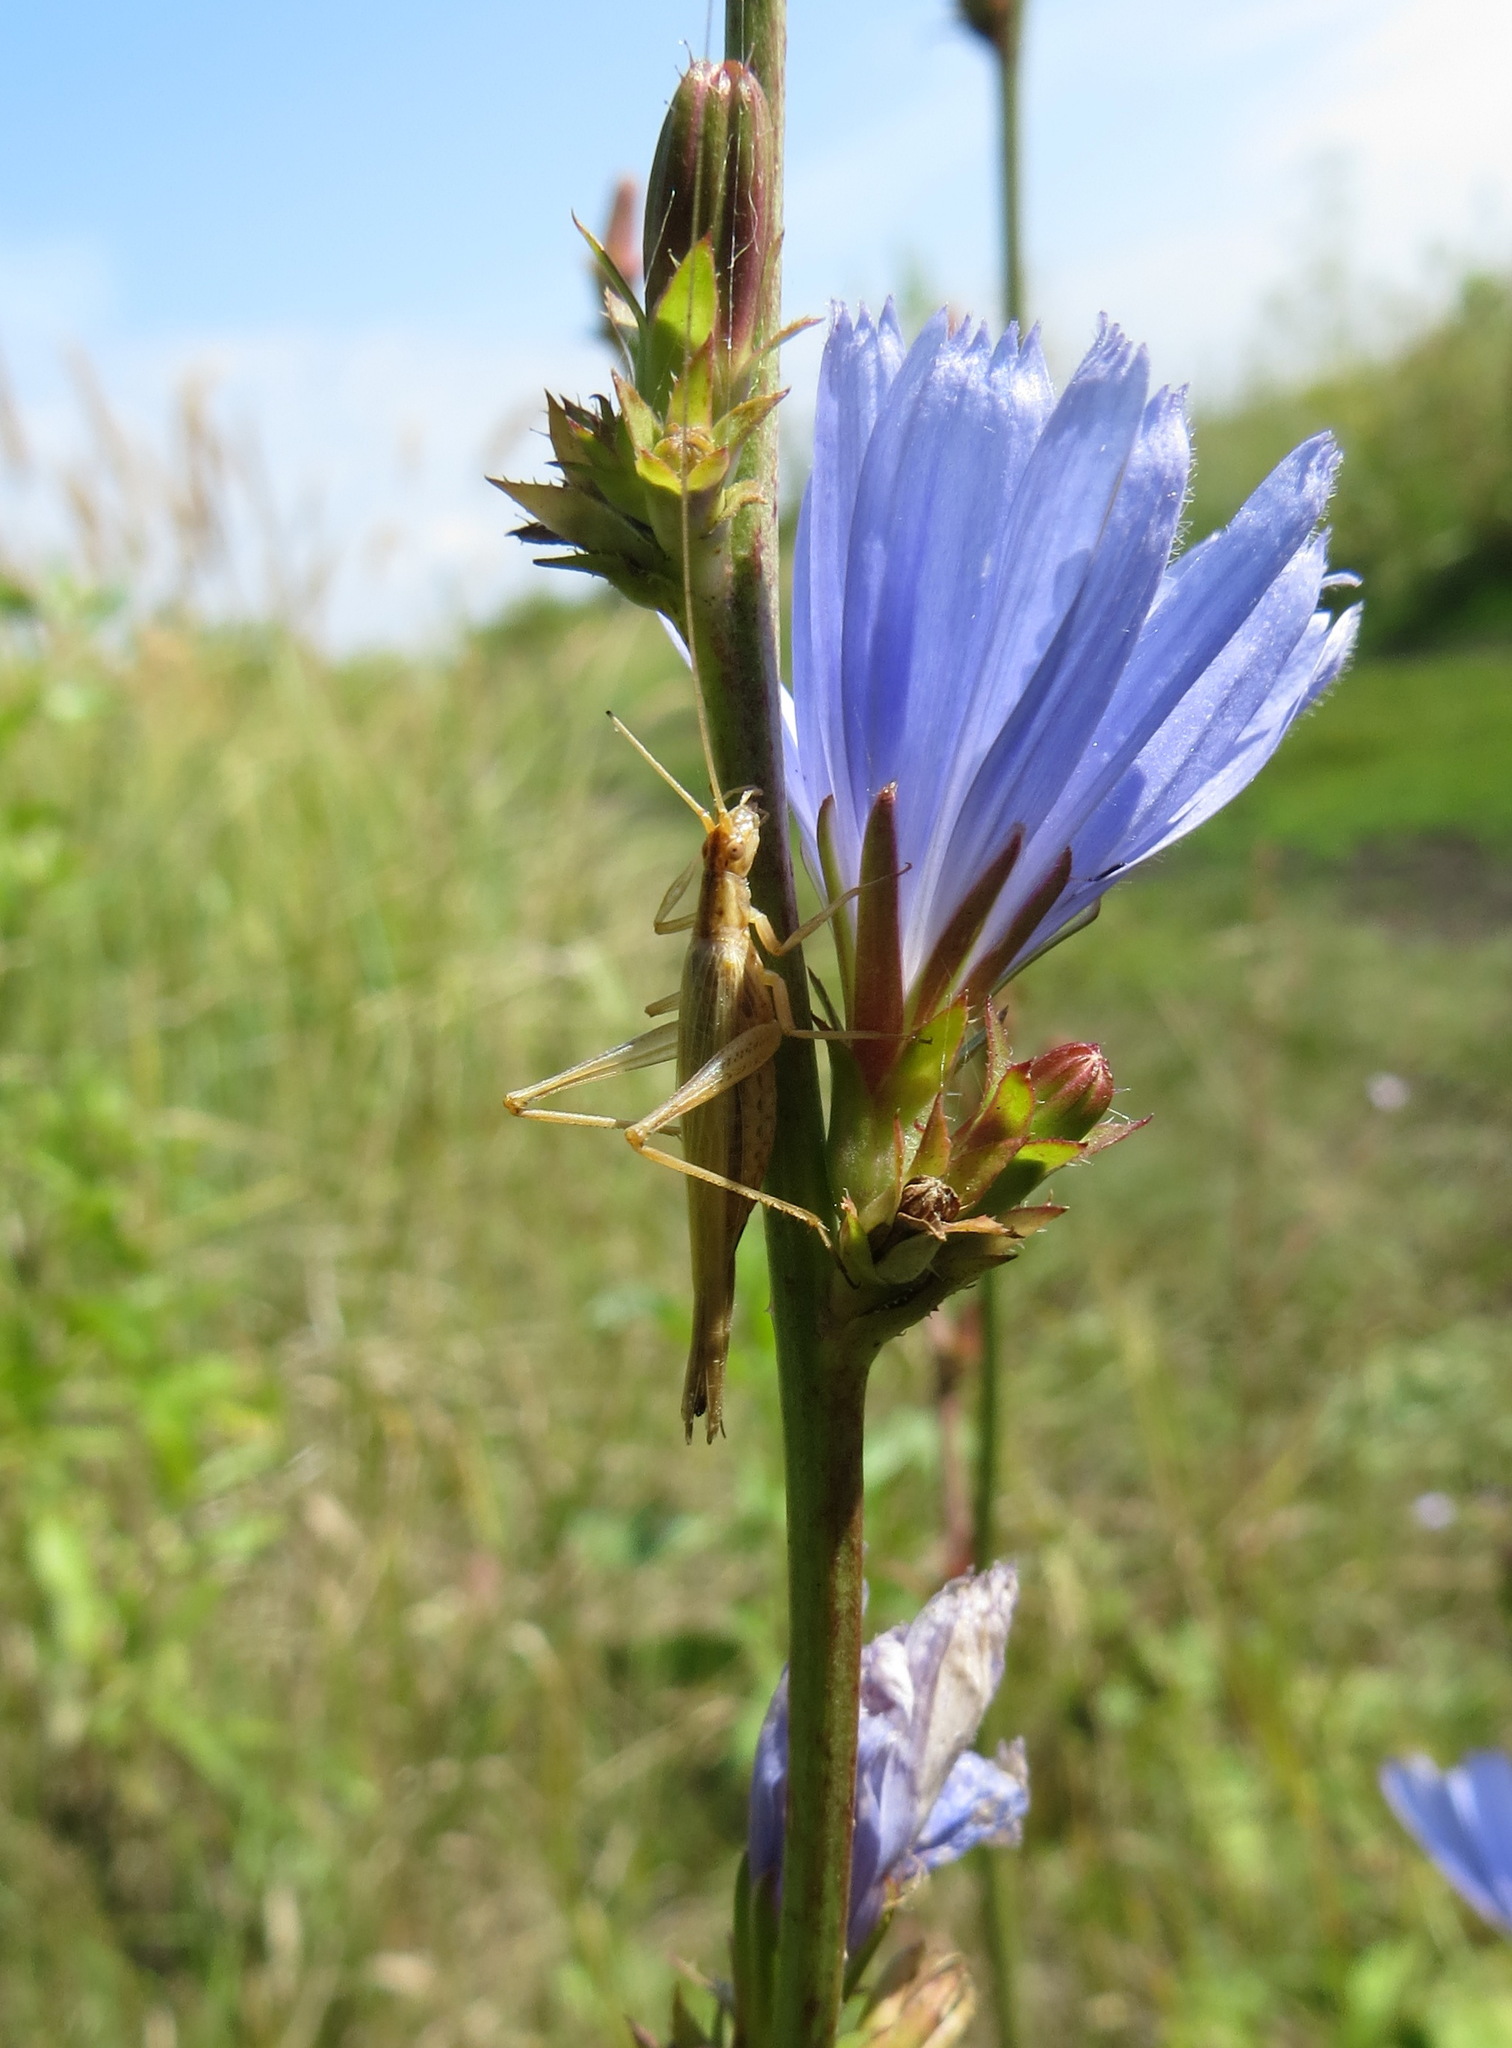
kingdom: Animalia
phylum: Arthropoda
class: Insecta
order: Orthoptera
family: Gryllidae
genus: Oecanthus
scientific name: Oecanthus pellucens
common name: Tree-cricket
